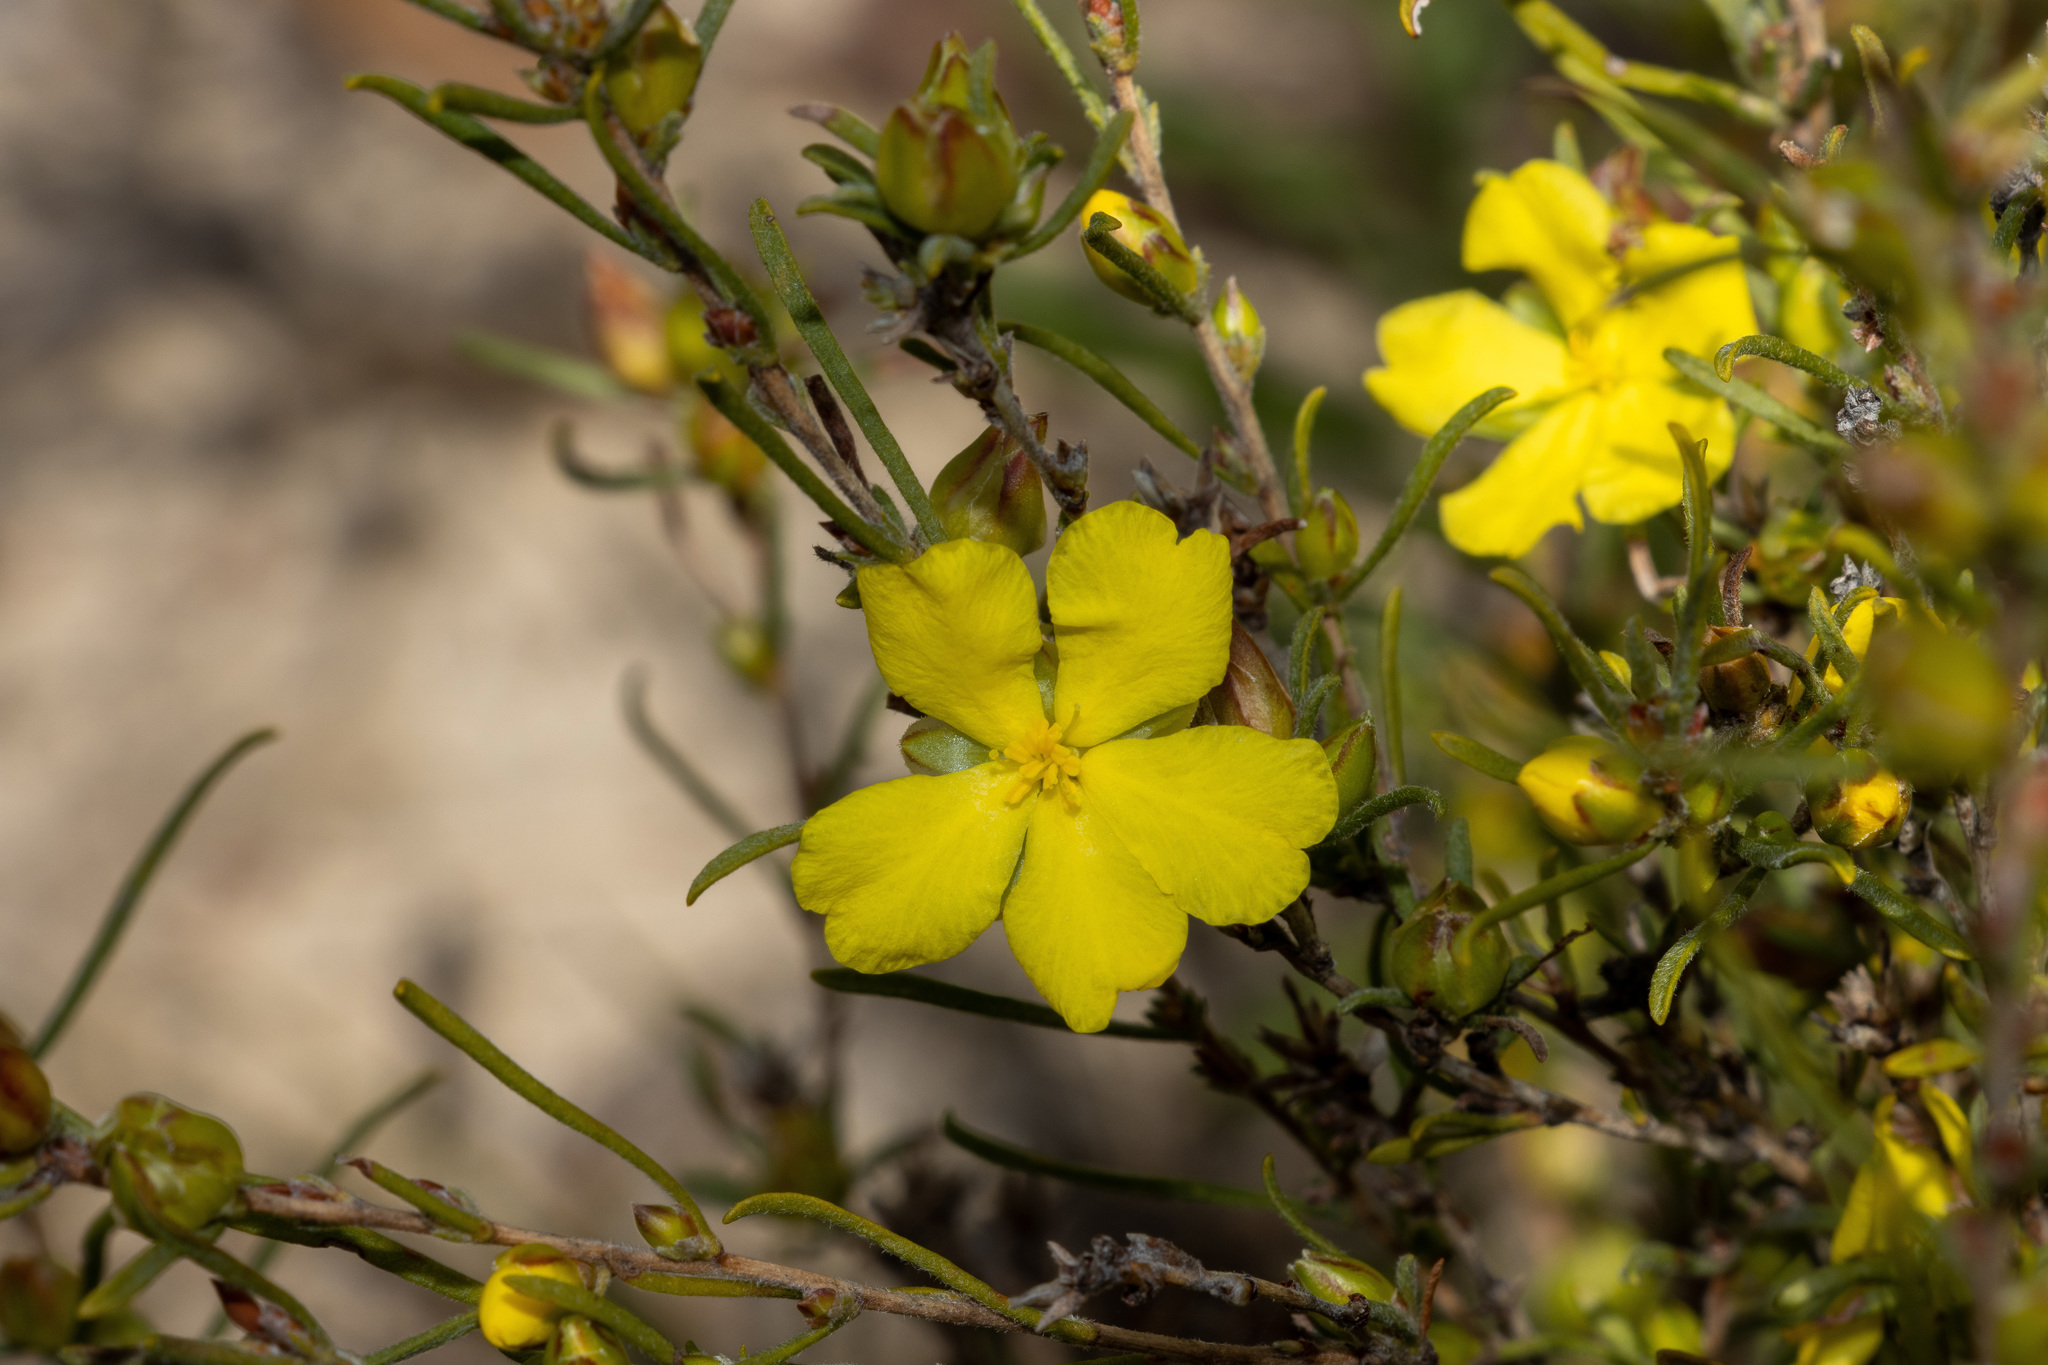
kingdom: Plantae
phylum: Tracheophyta
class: Magnoliopsida
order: Dilleniales
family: Dilleniaceae
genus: Hibbertia
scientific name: Hibbertia virgata
